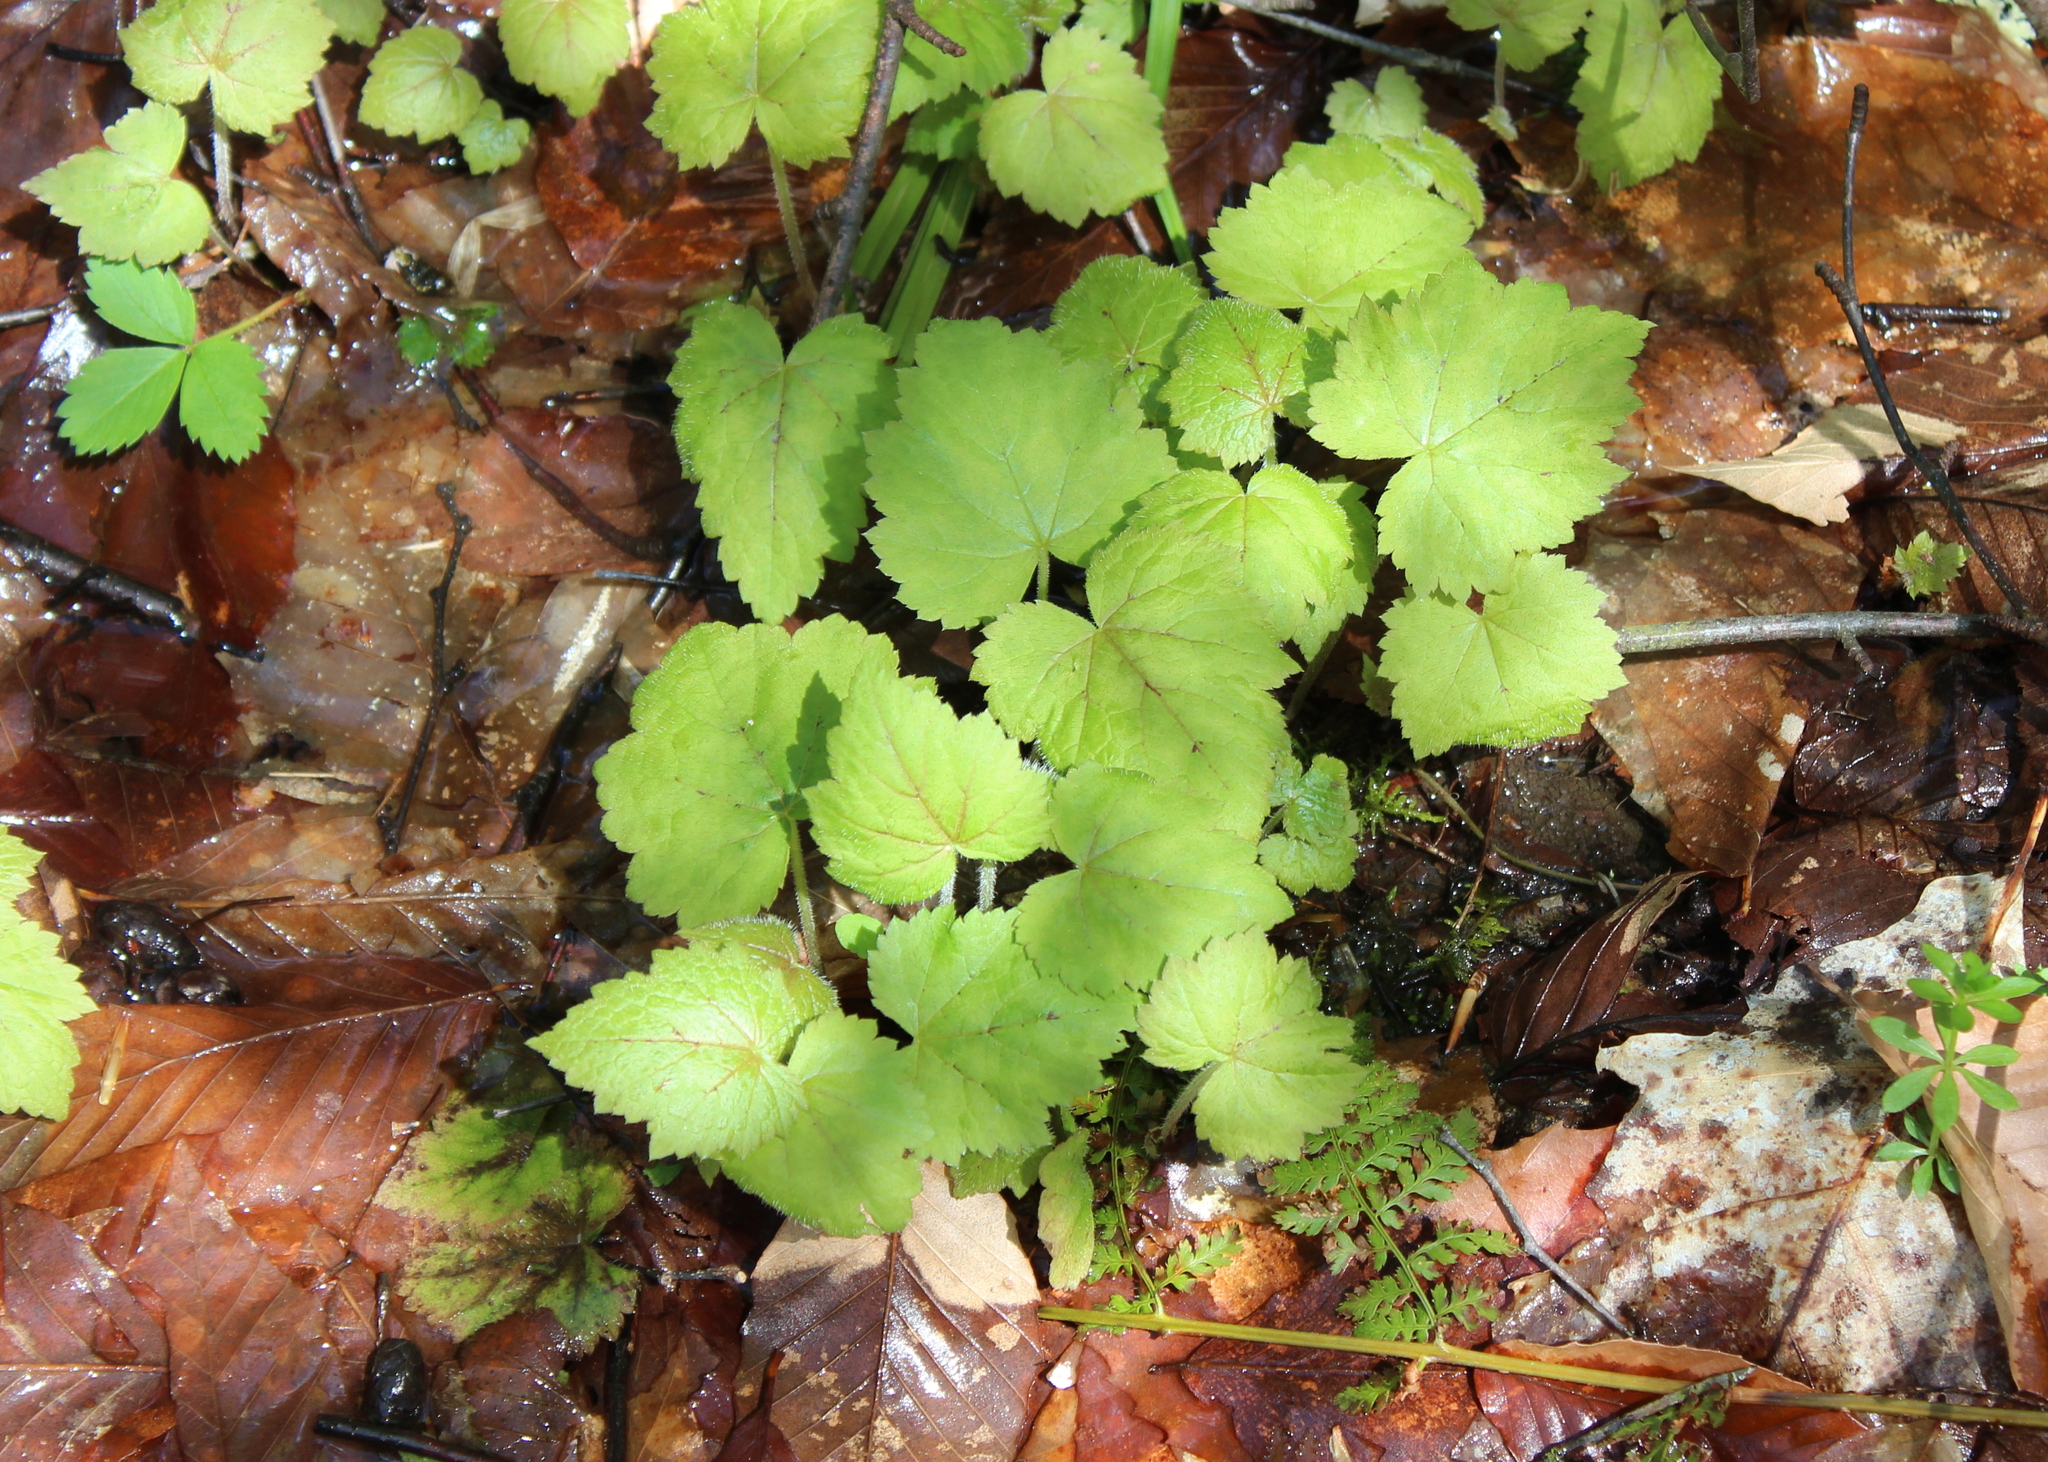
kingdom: Plantae
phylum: Tracheophyta
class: Magnoliopsida
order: Saxifragales
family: Saxifragaceae
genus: Tiarella
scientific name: Tiarella stolonifera
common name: Stoloniferous foamflower
